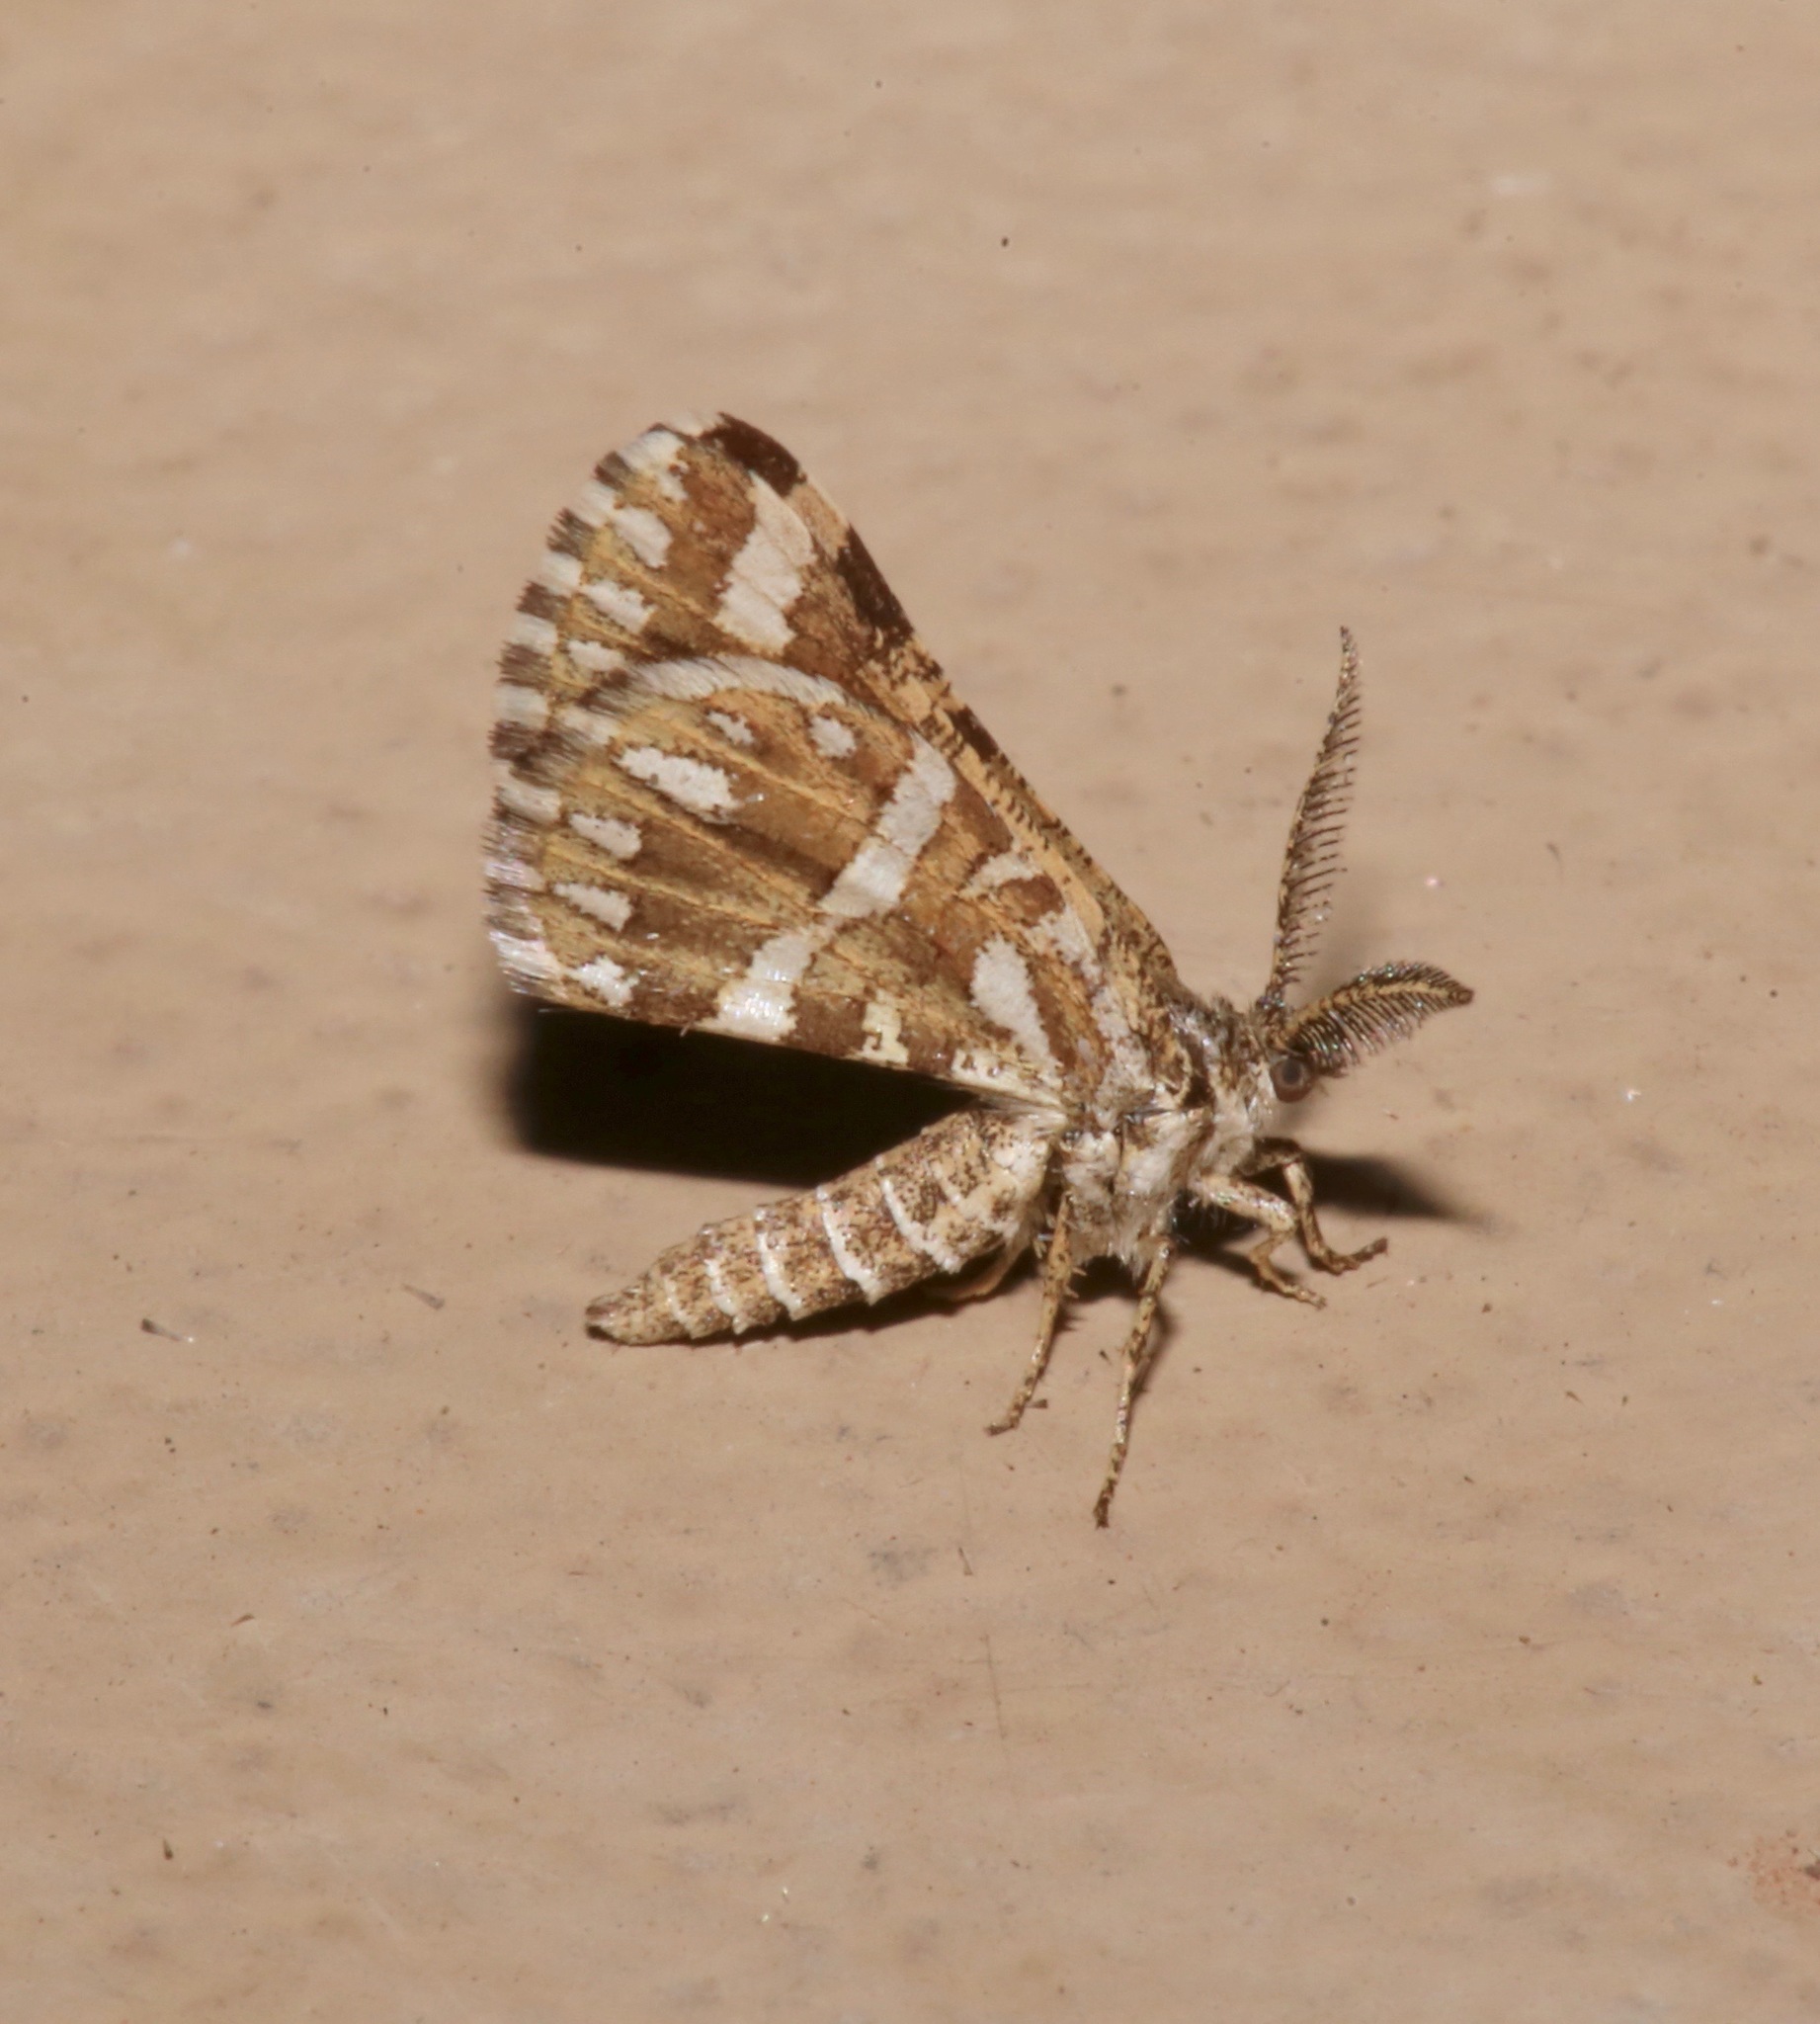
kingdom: Animalia
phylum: Arthropoda
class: Insecta
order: Lepidoptera
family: Geometridae
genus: Narraga
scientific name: Narraga fimetaria
